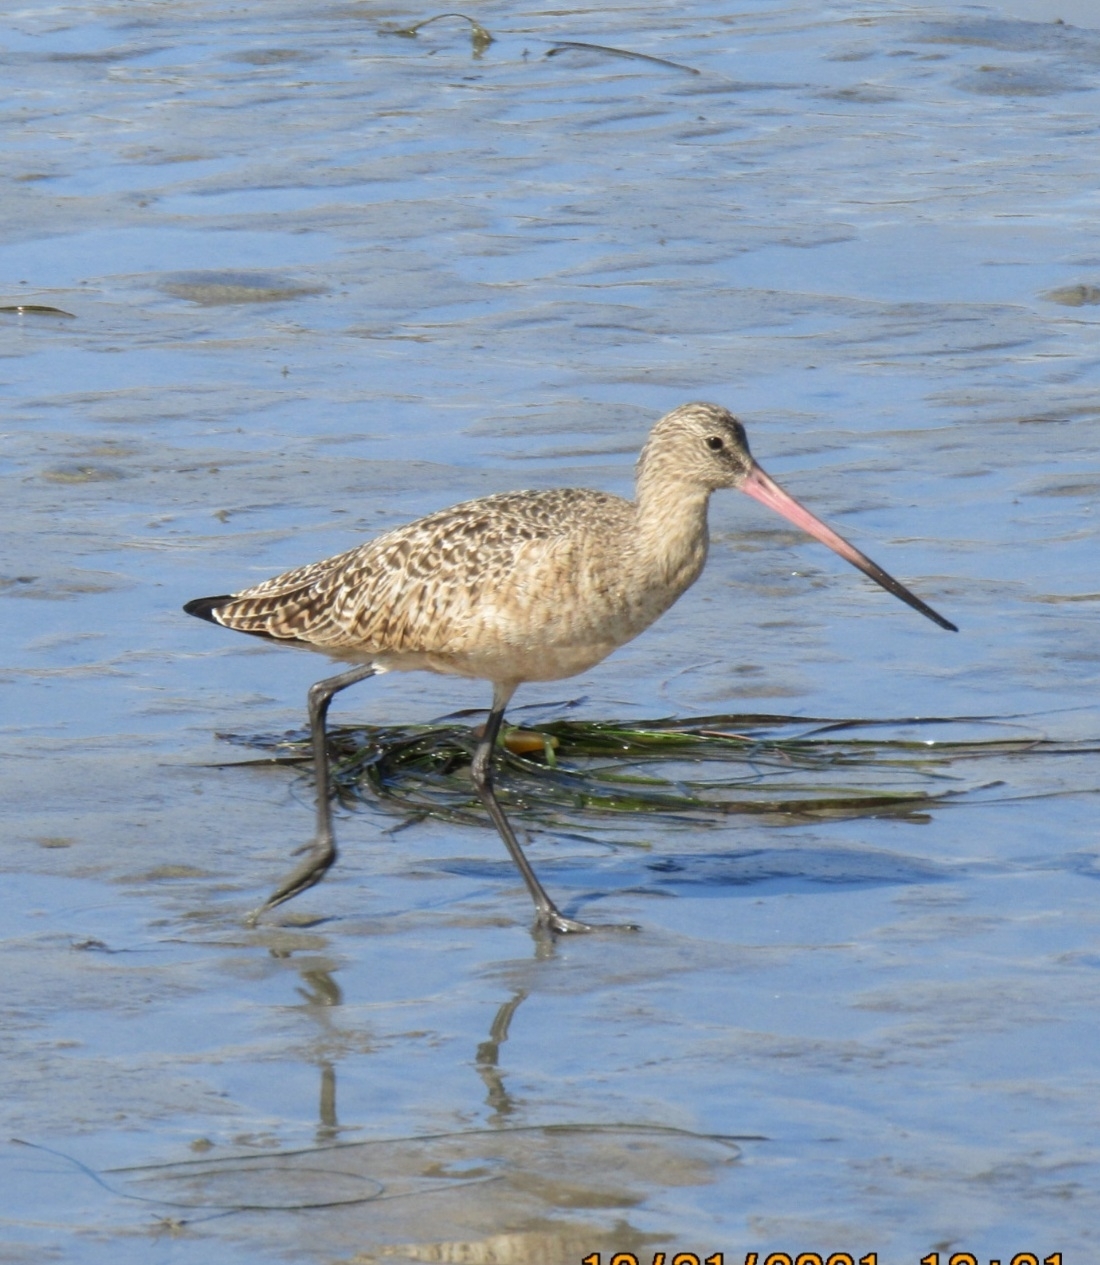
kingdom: Animalia
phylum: Chordata
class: Aves
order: Charadriiformes
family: Scolopacidae
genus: Limosa
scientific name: Limosa fedoa
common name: Marbled godwit
